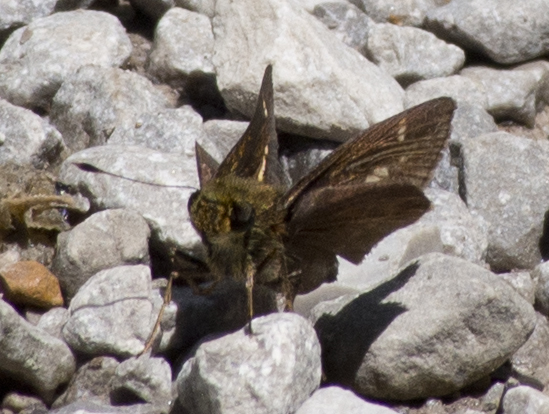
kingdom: Animalia
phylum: Arthropoda
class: Insecta
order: Lepidoptera
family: Hesperiidae
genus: Vernia
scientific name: Vernia verna
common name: Little glassywing
